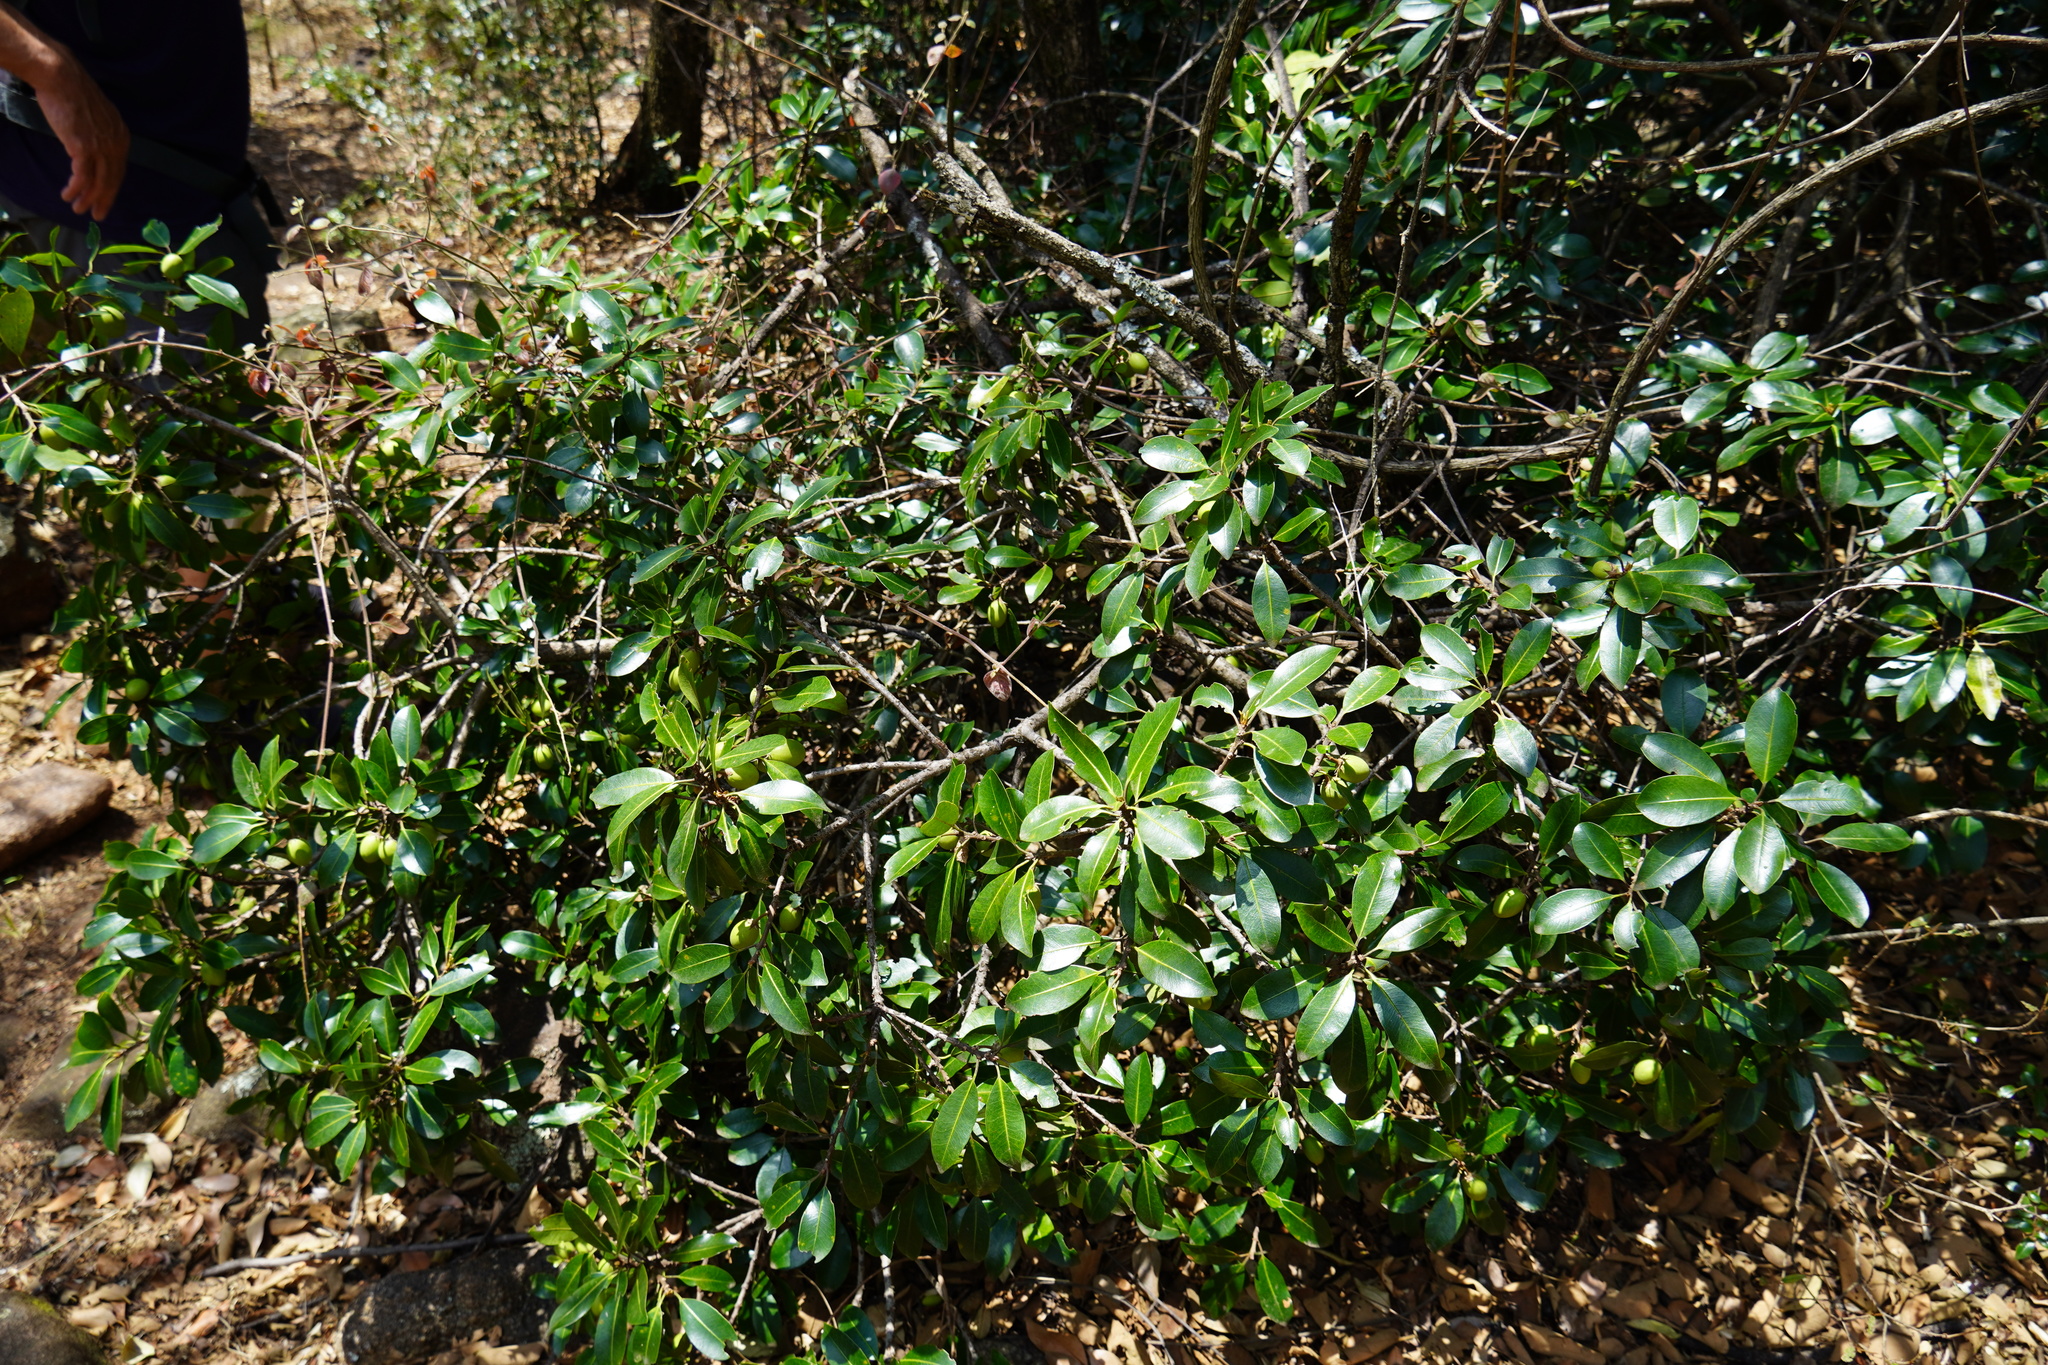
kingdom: Plantae
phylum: Tracheophyta
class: Magnoliopsida
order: Ericales
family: Sapotaceae
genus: Mimusops
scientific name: Mimusops zeyheri
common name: Transvaal red milkwood
